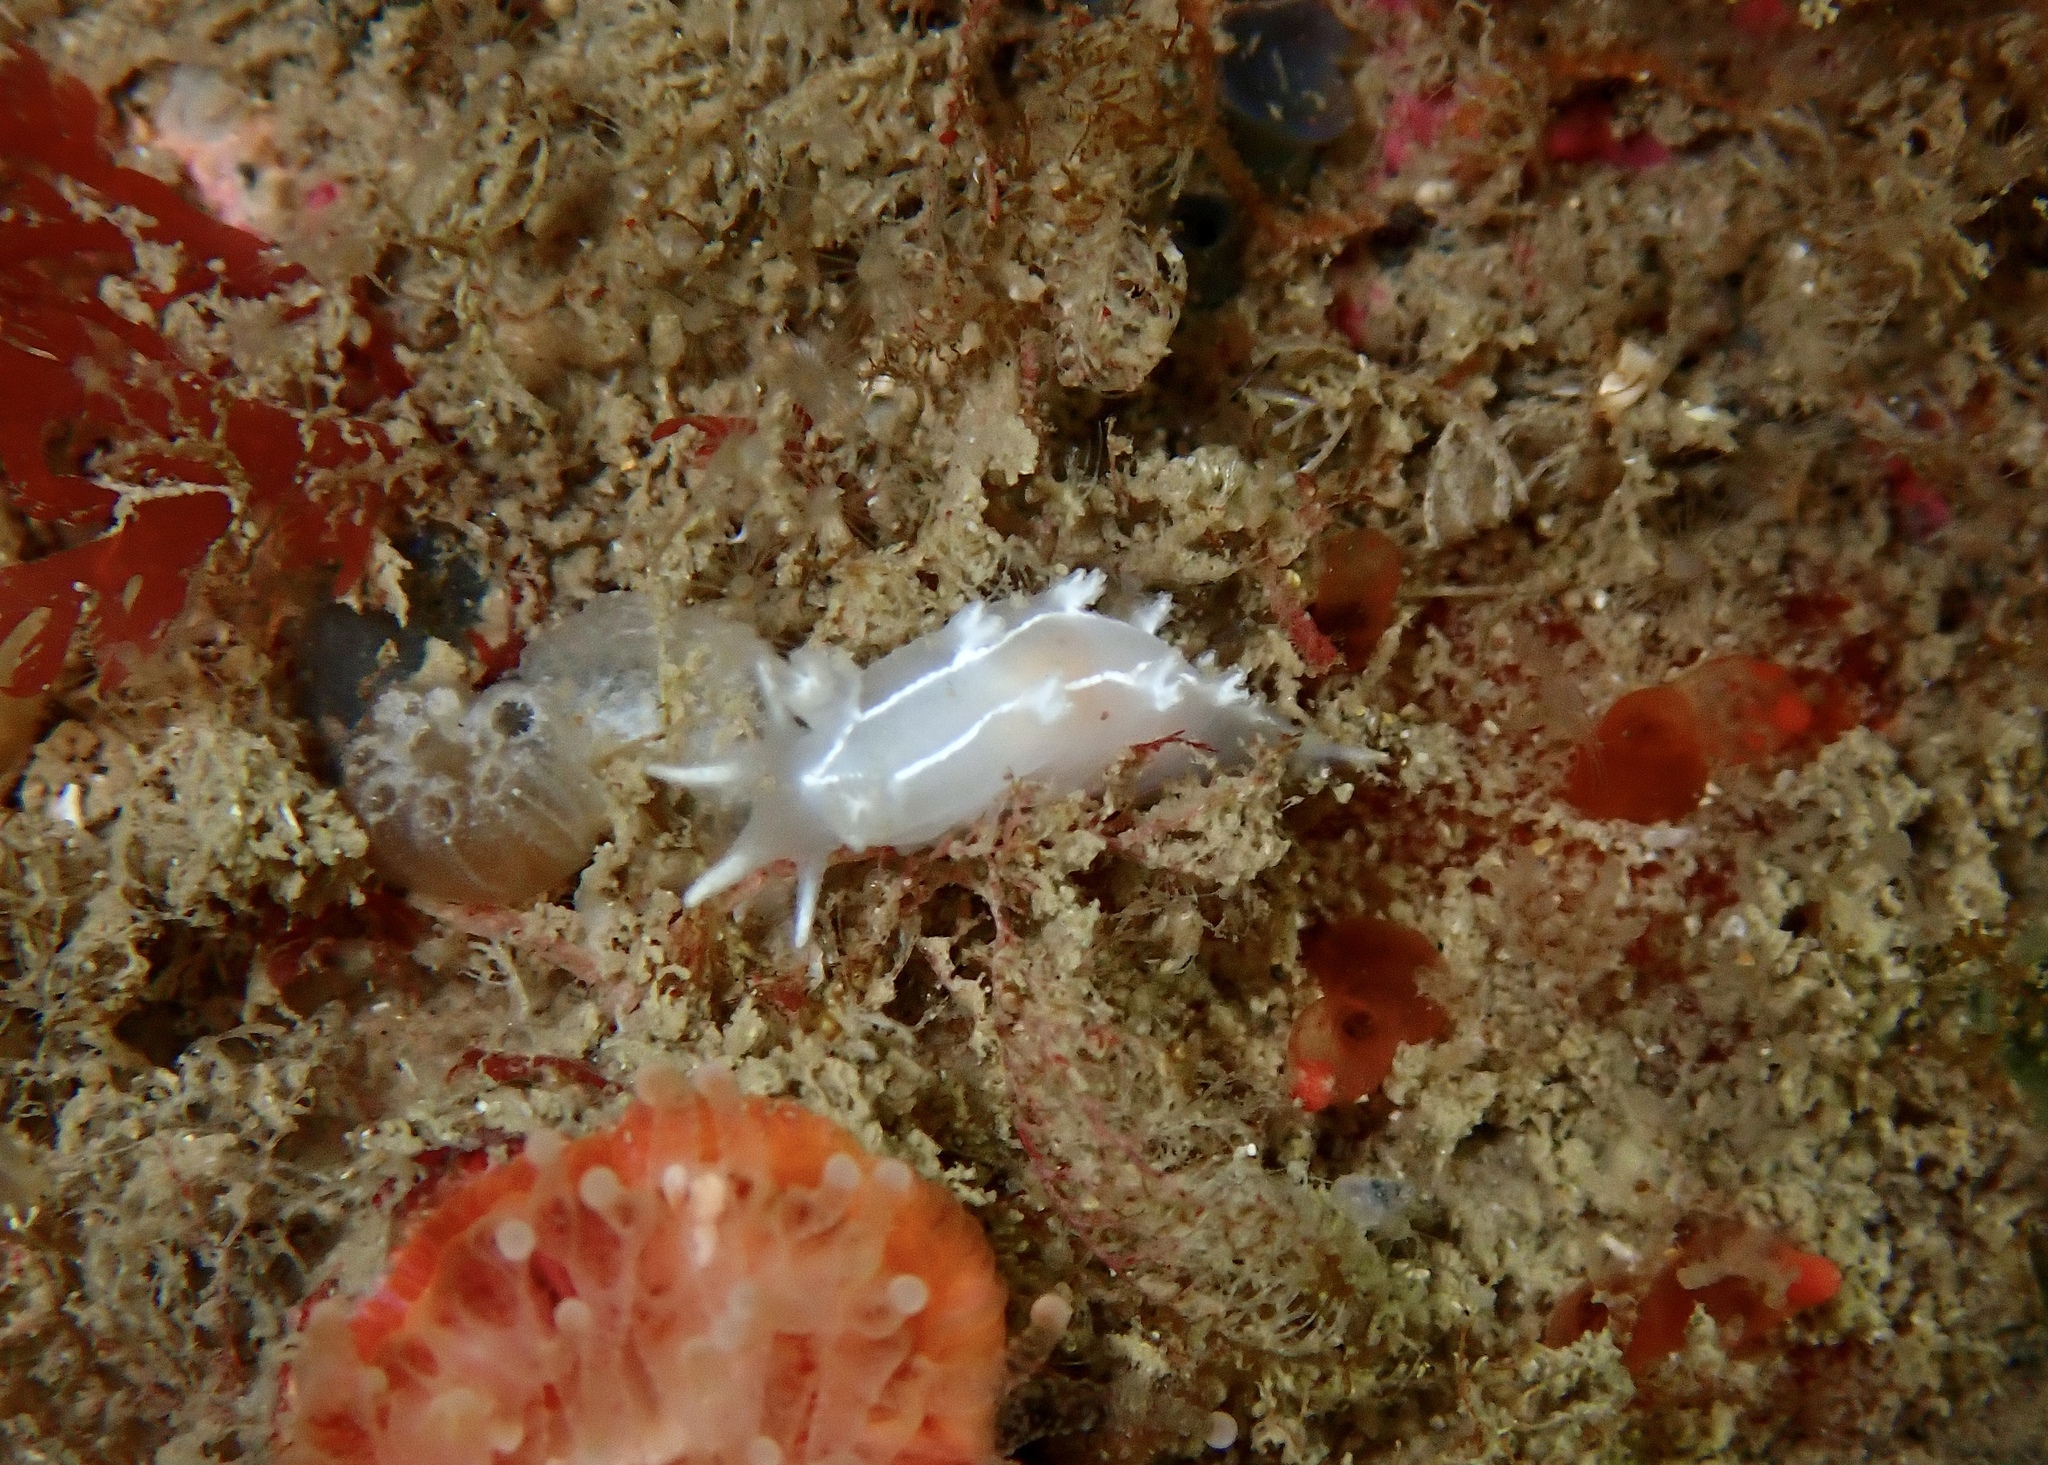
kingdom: Animalia
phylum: Mollusca
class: Gastropoda
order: Nudibranchia
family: Tritoniidae
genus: Duvaucelia
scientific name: Duvaucelia lineata
